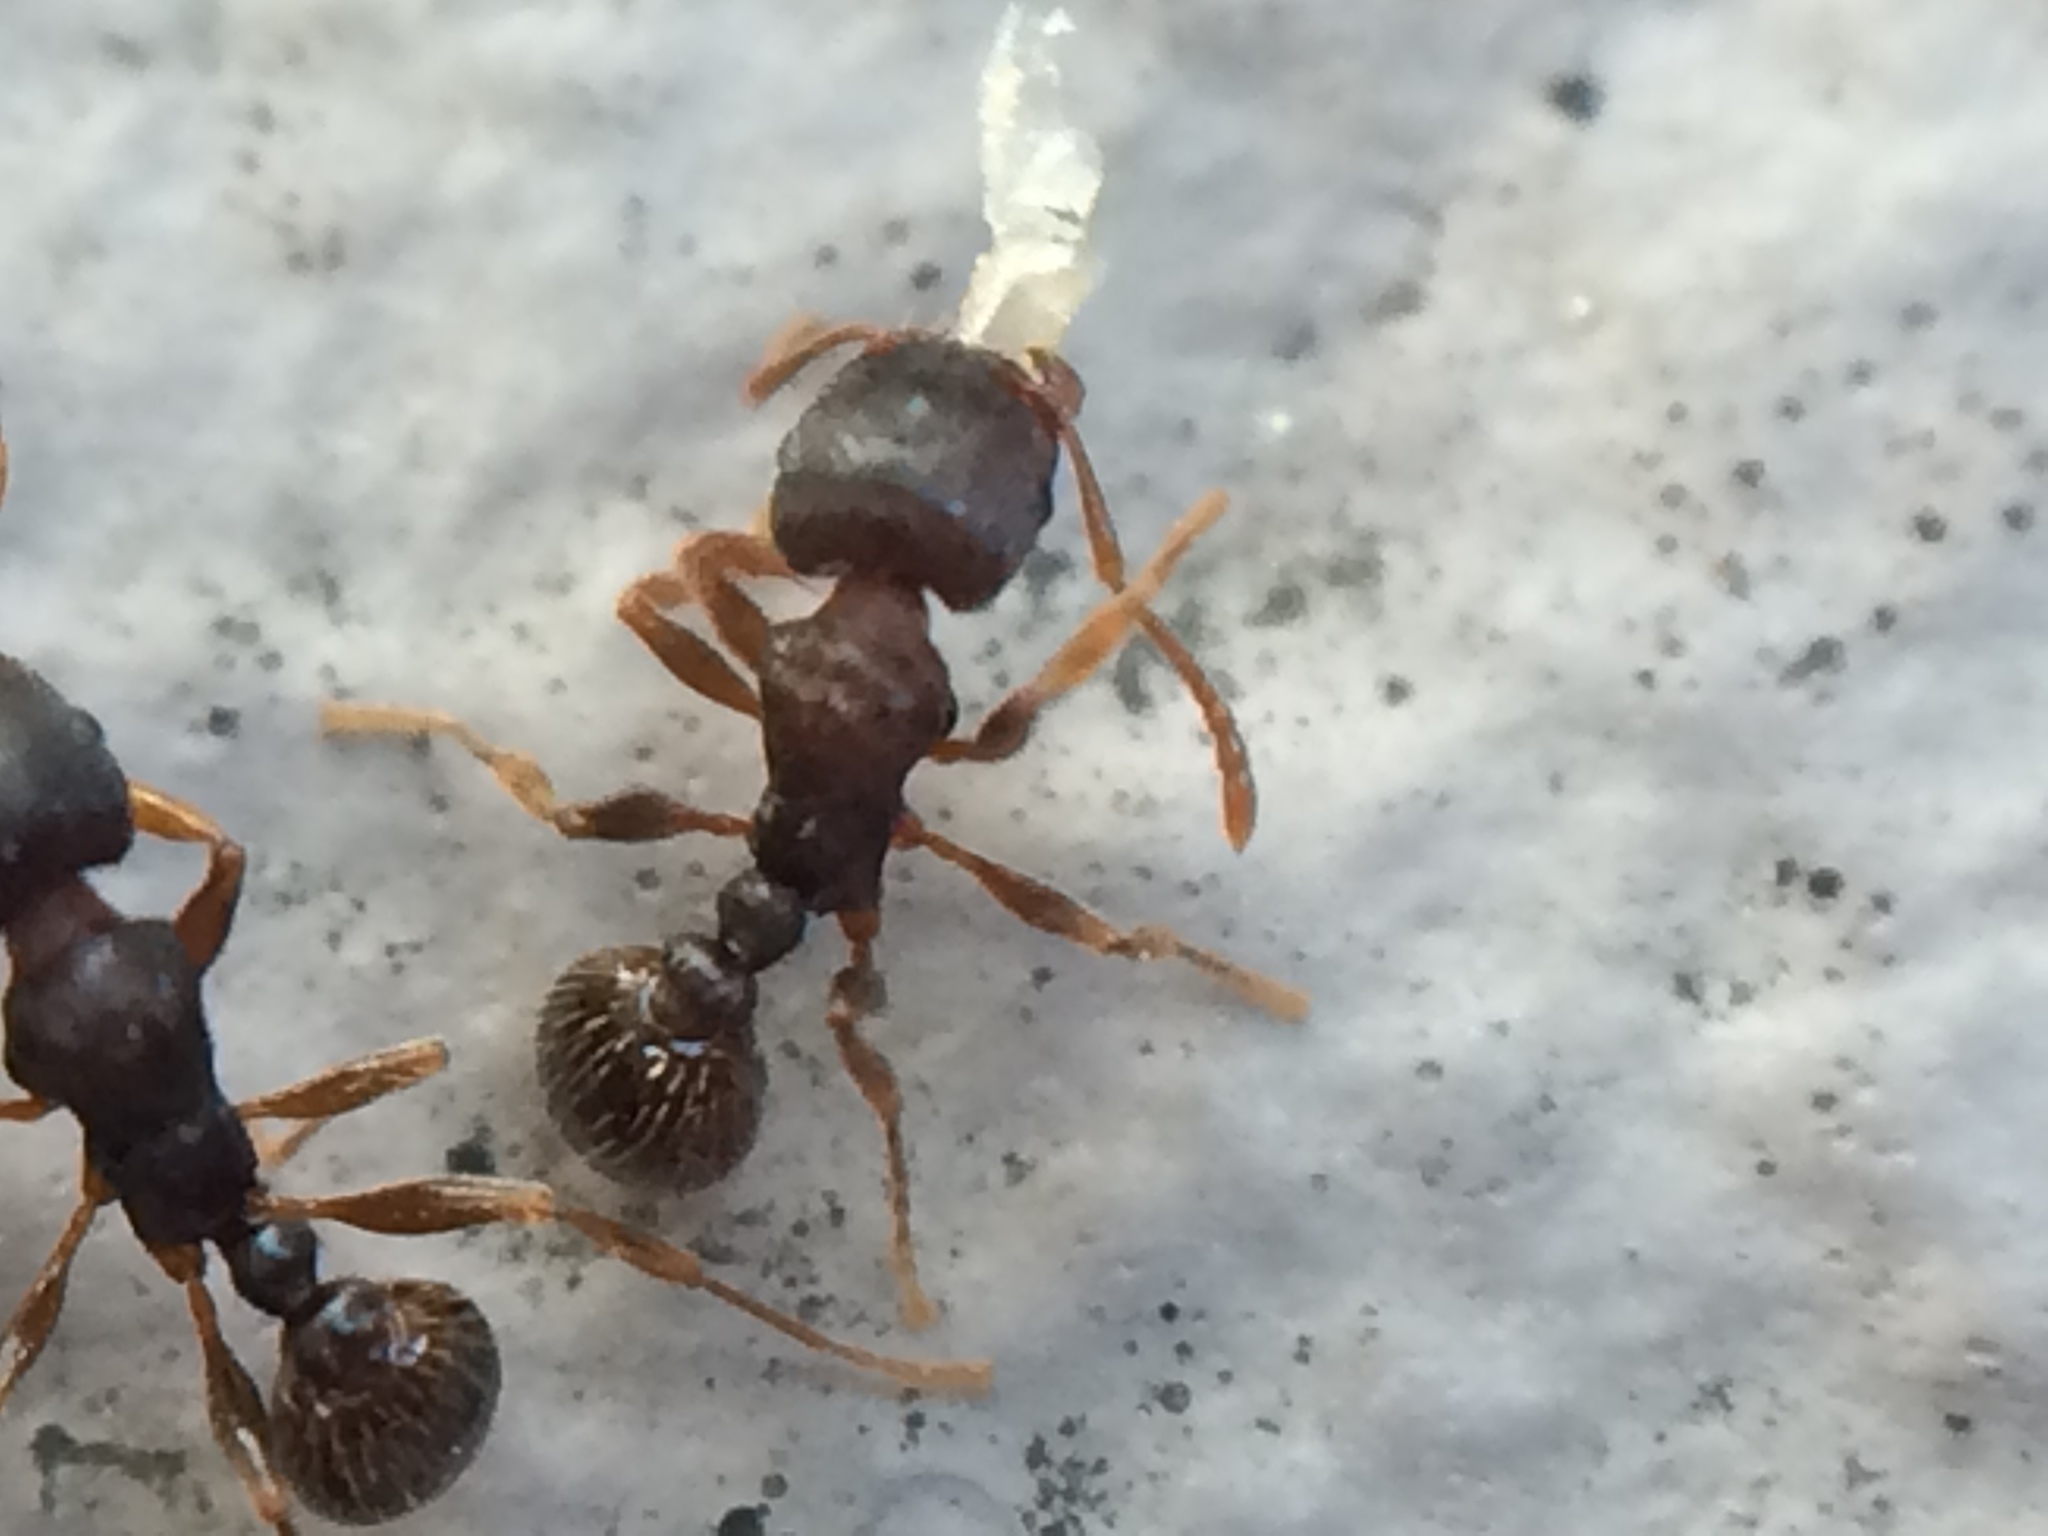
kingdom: Animalia
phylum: Arthropoda
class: Insecta
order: Hymenoptera
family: Formicidae
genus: Tetramorium
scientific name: Tetramorium immigrans
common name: Pavement ant
